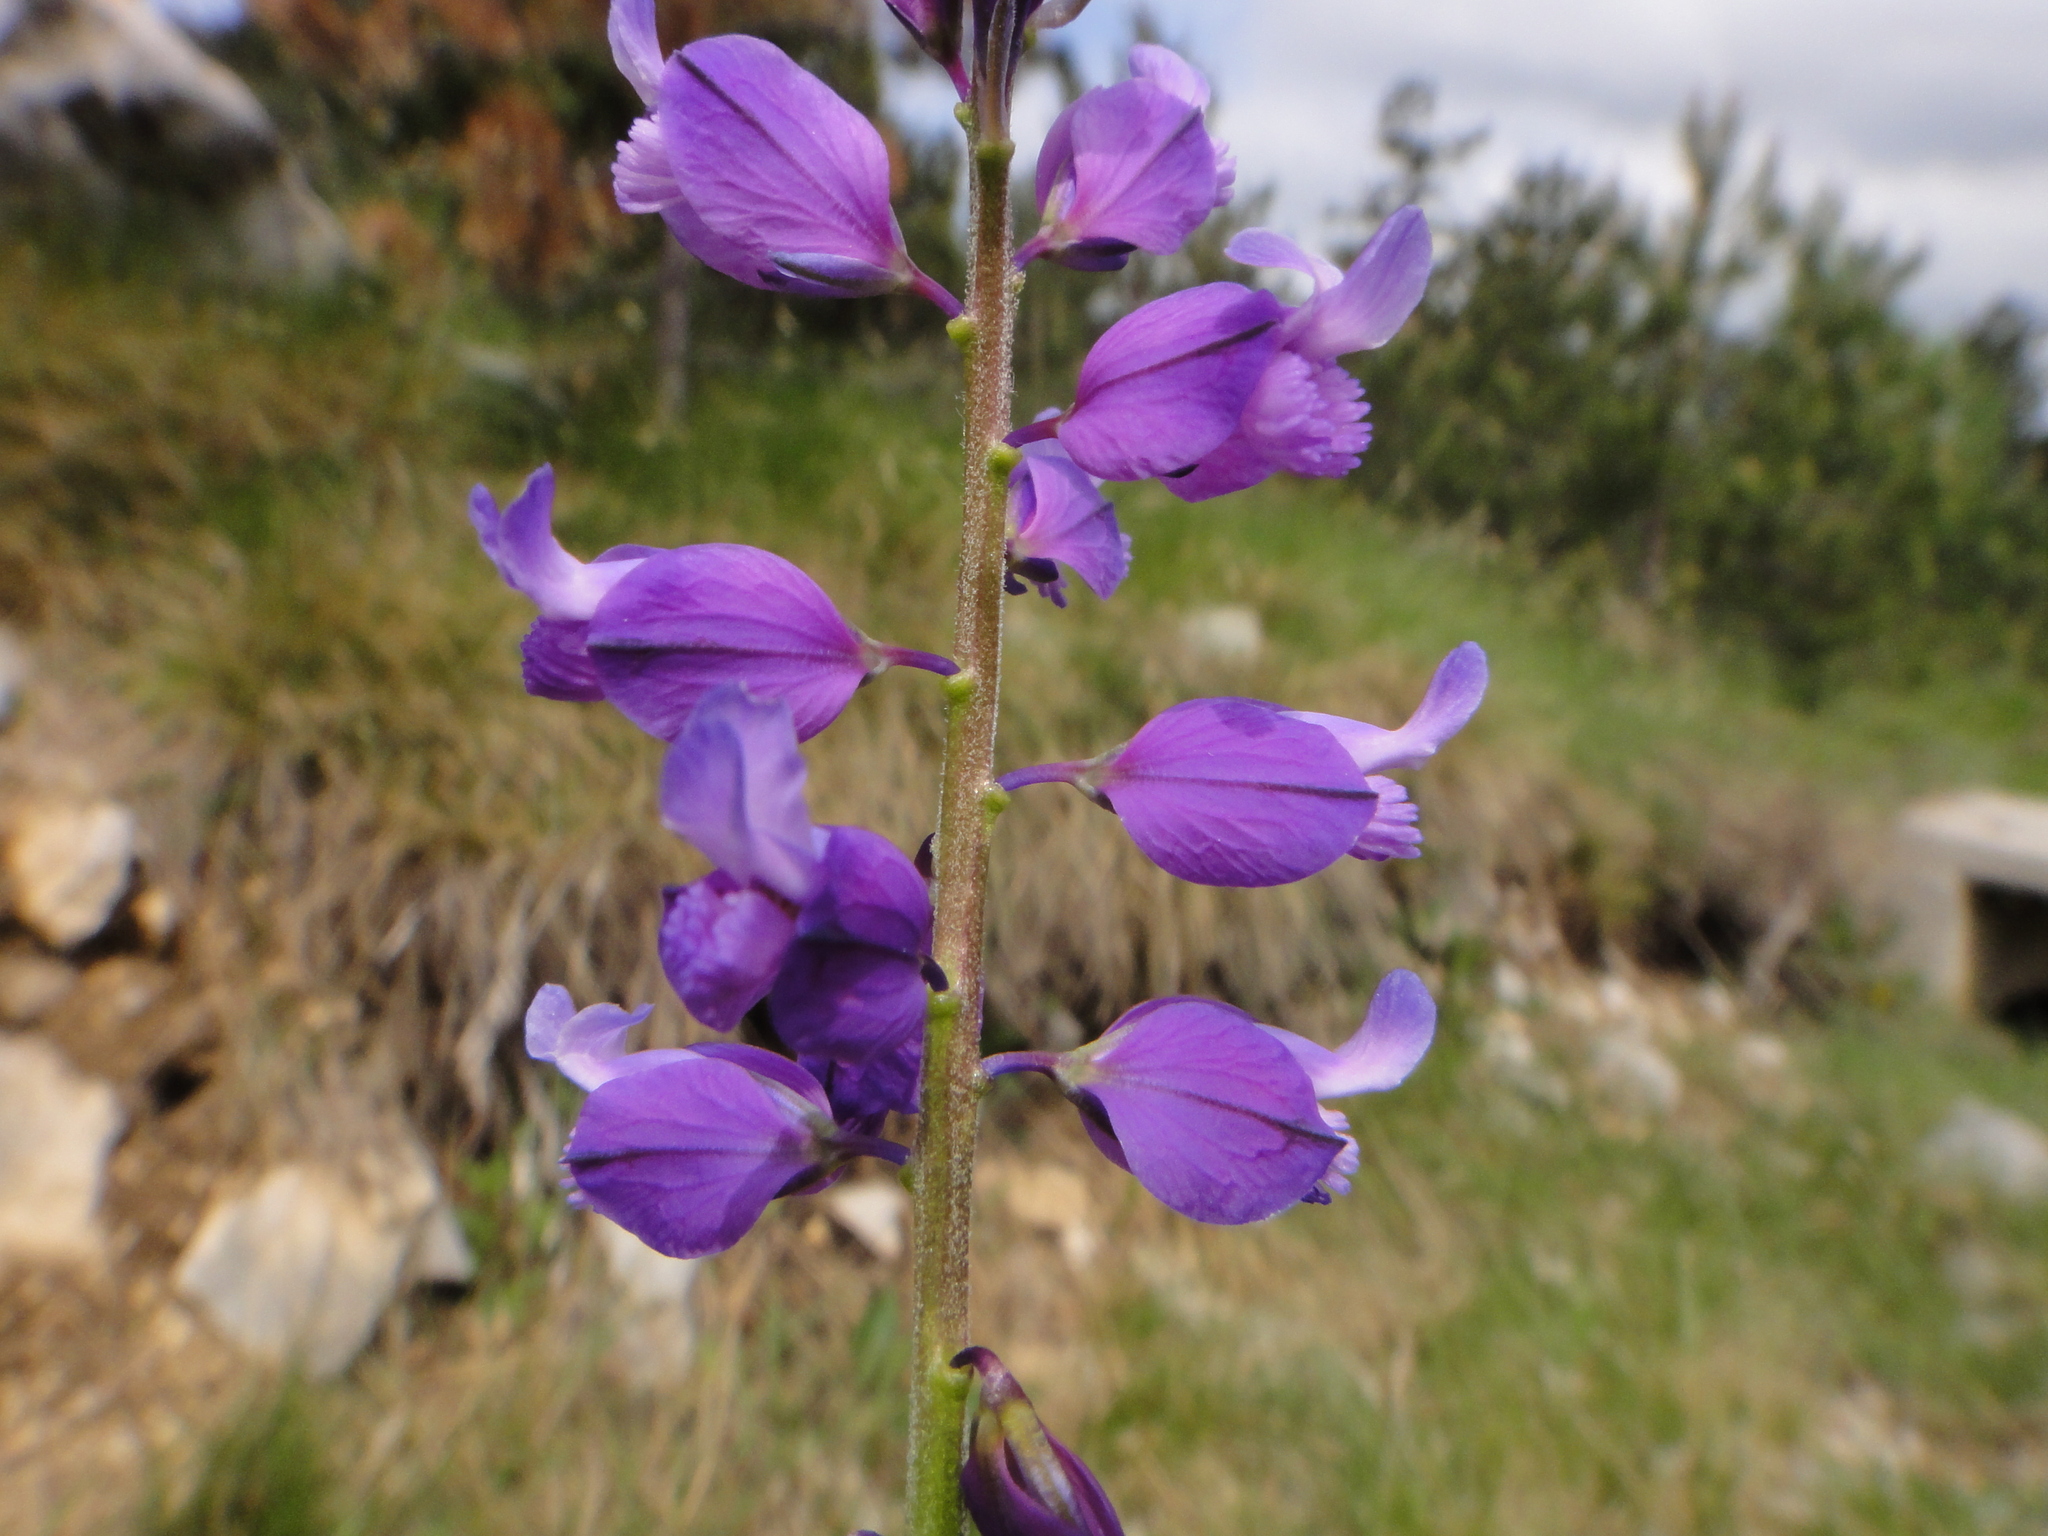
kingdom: Plantae
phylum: Tracheophyta
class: Magnoliopsida
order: Fabales
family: Polygalaceae
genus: Polygala
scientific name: Polygala nicaeensis
